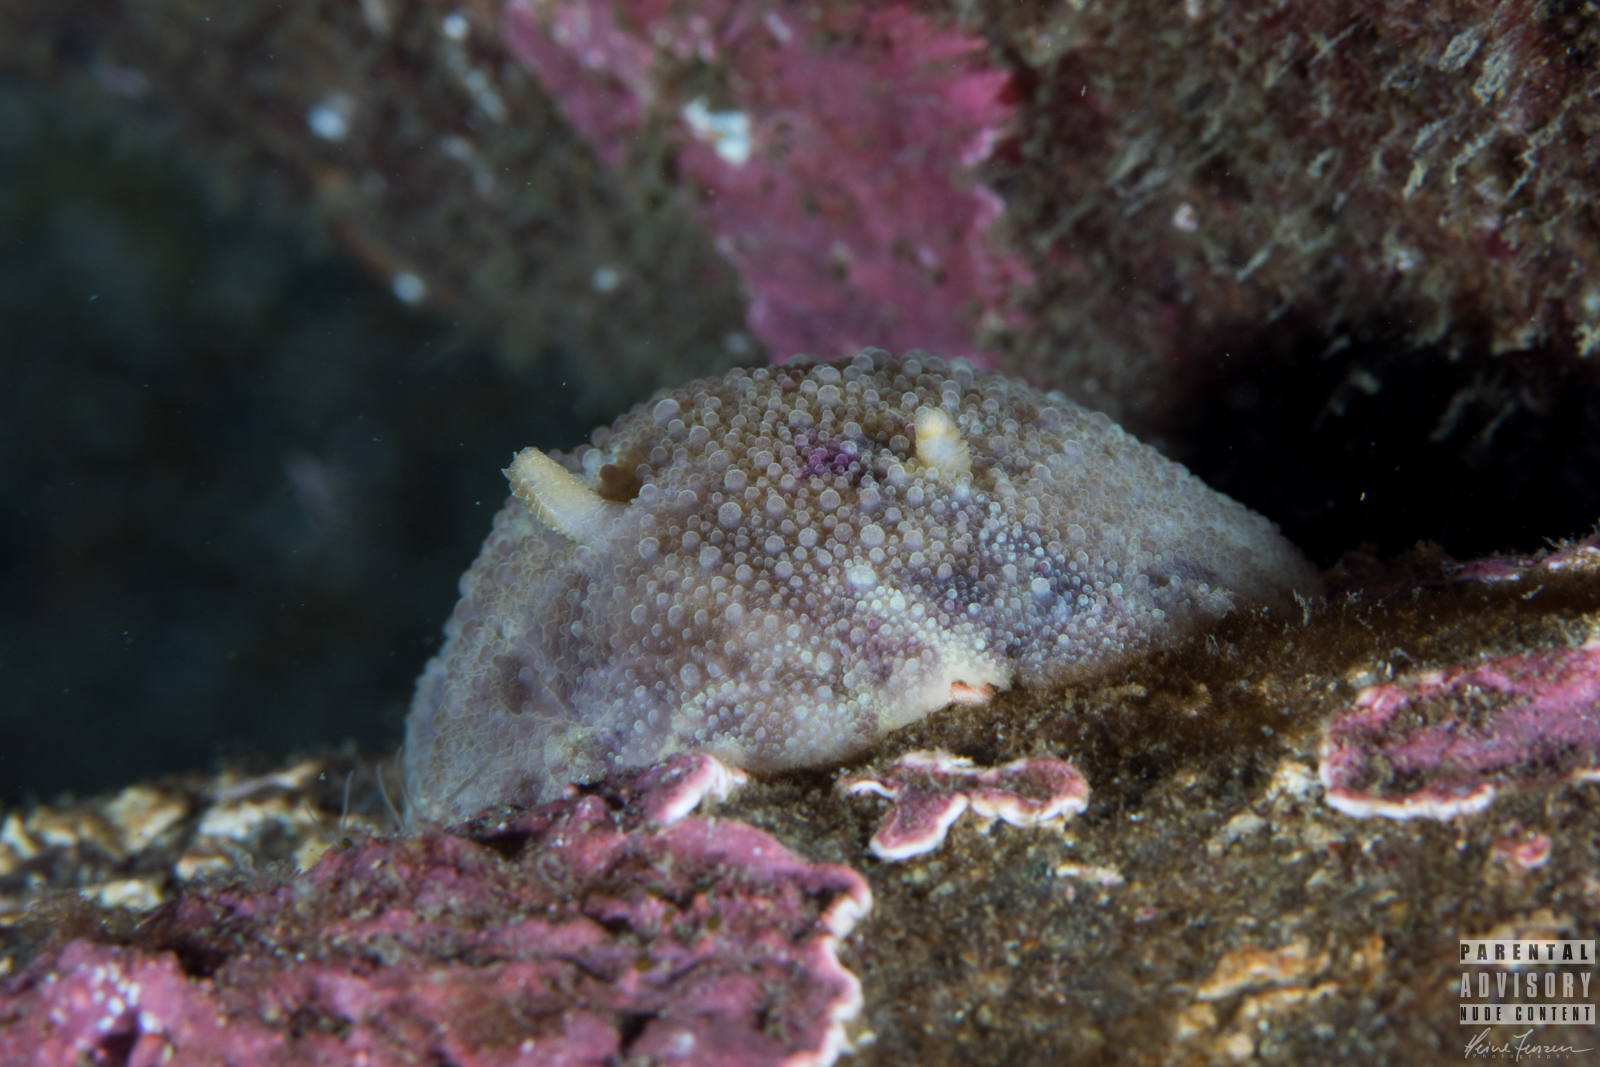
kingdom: Animalia
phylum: Mollusca
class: Gastropoda
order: Nudibranchia
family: Dorididae
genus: Doris
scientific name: Doris pseudoargus
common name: Sea lemon
